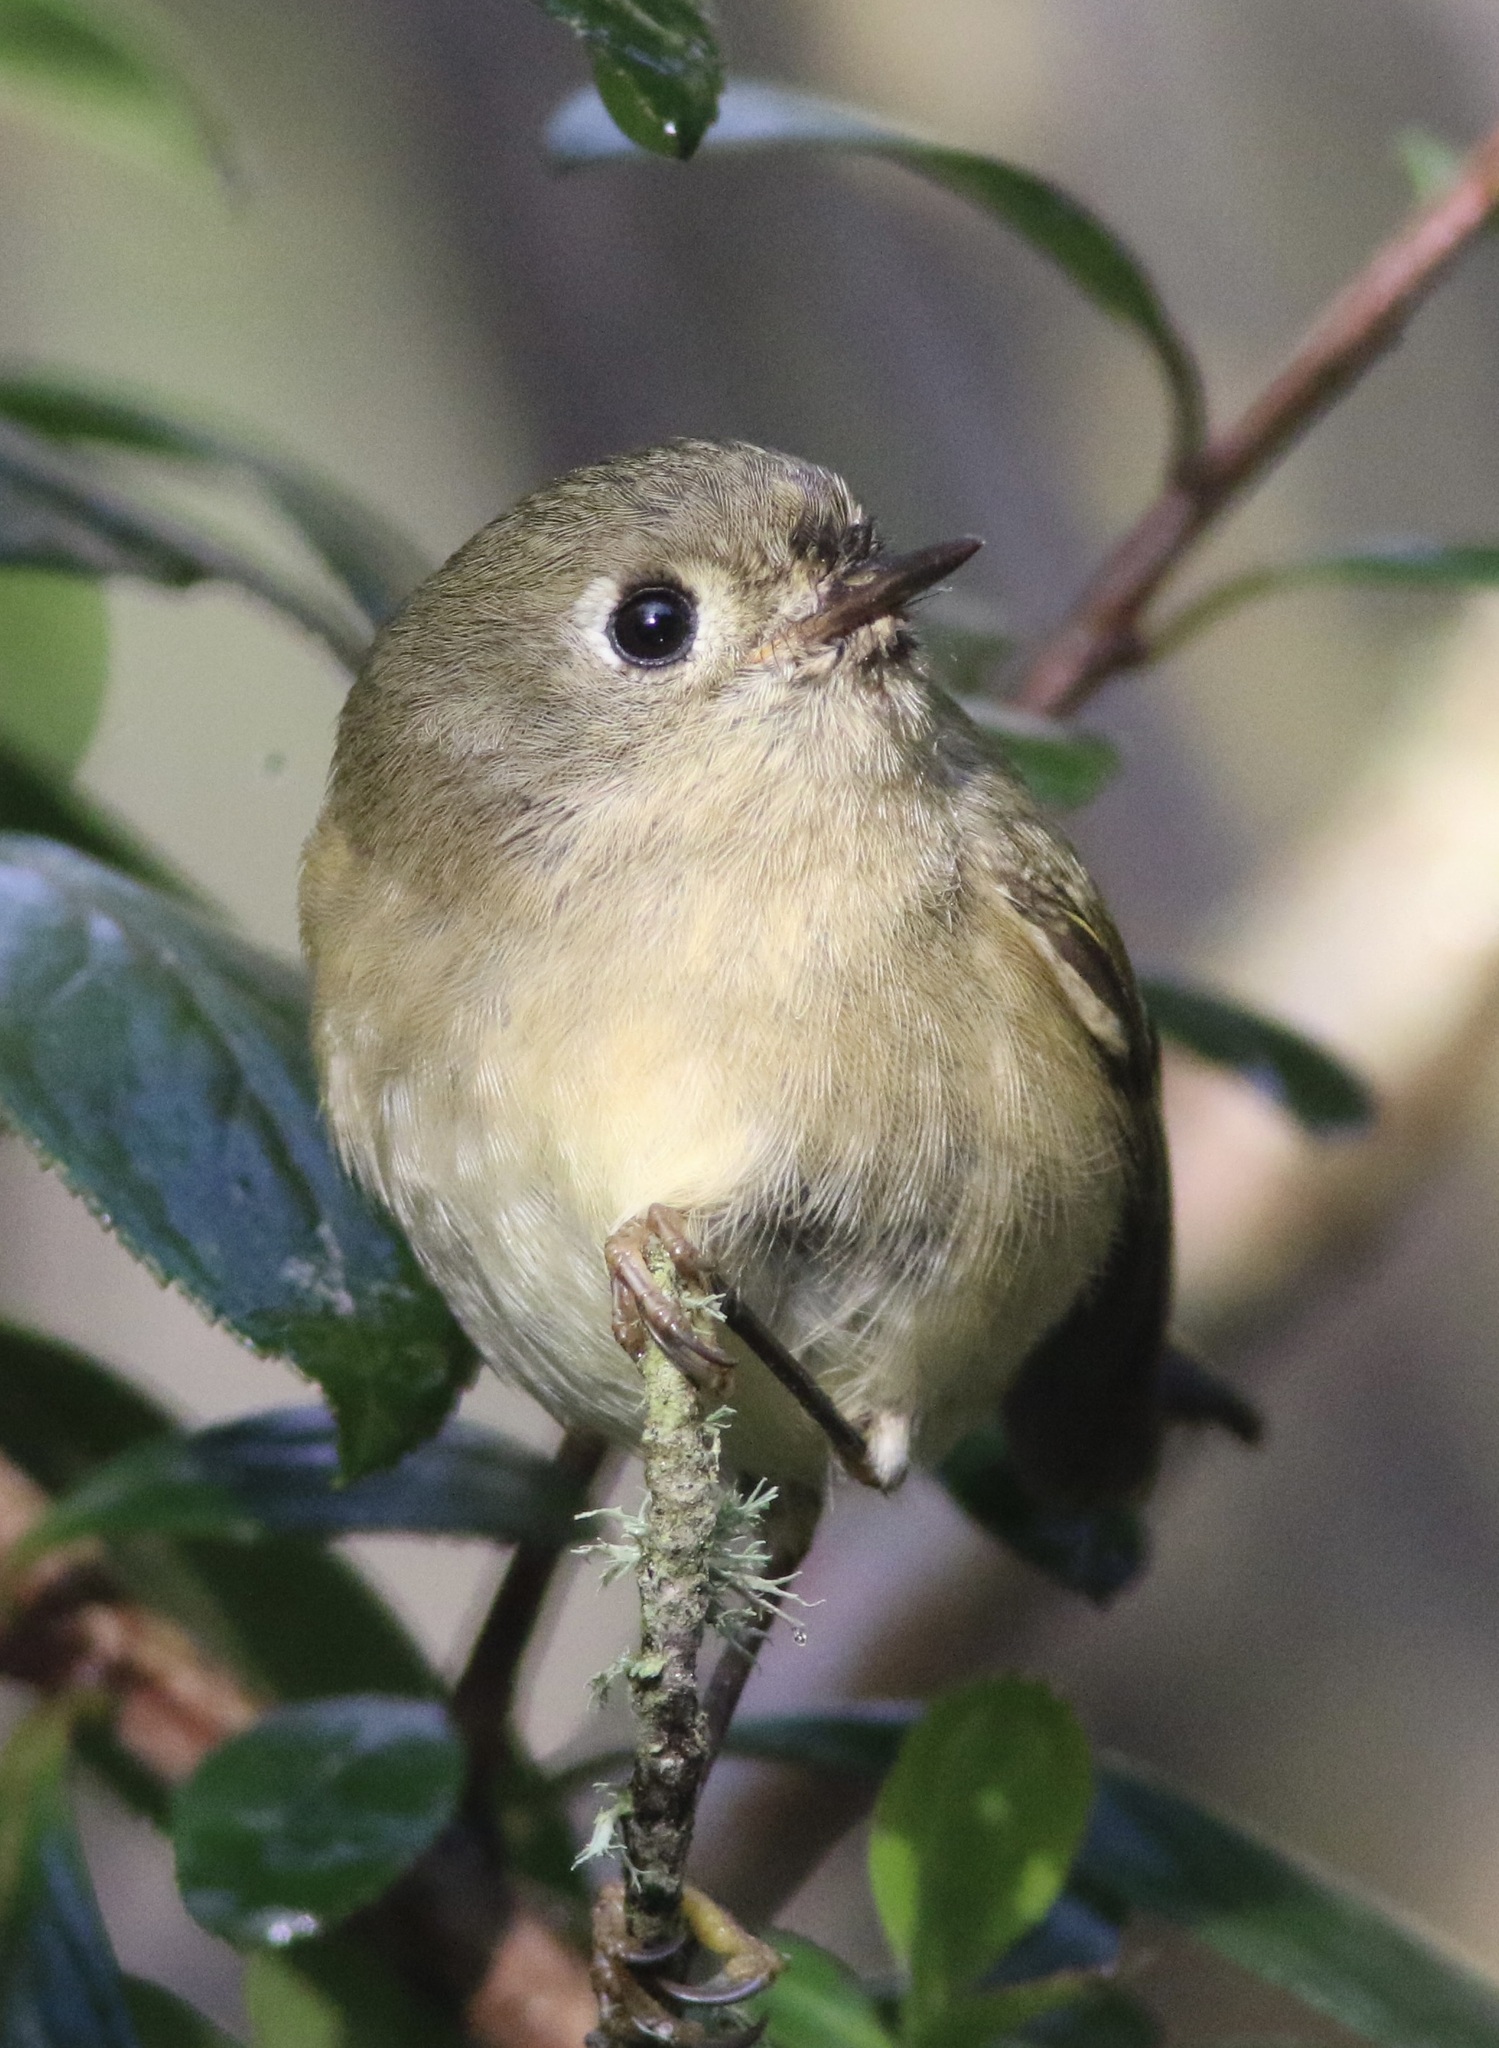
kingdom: Animalia
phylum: Chordata
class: Aves
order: Passeriformes
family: Regulidae
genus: Regulus
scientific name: Regulus calendula
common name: Ruby-crowned kinglet
